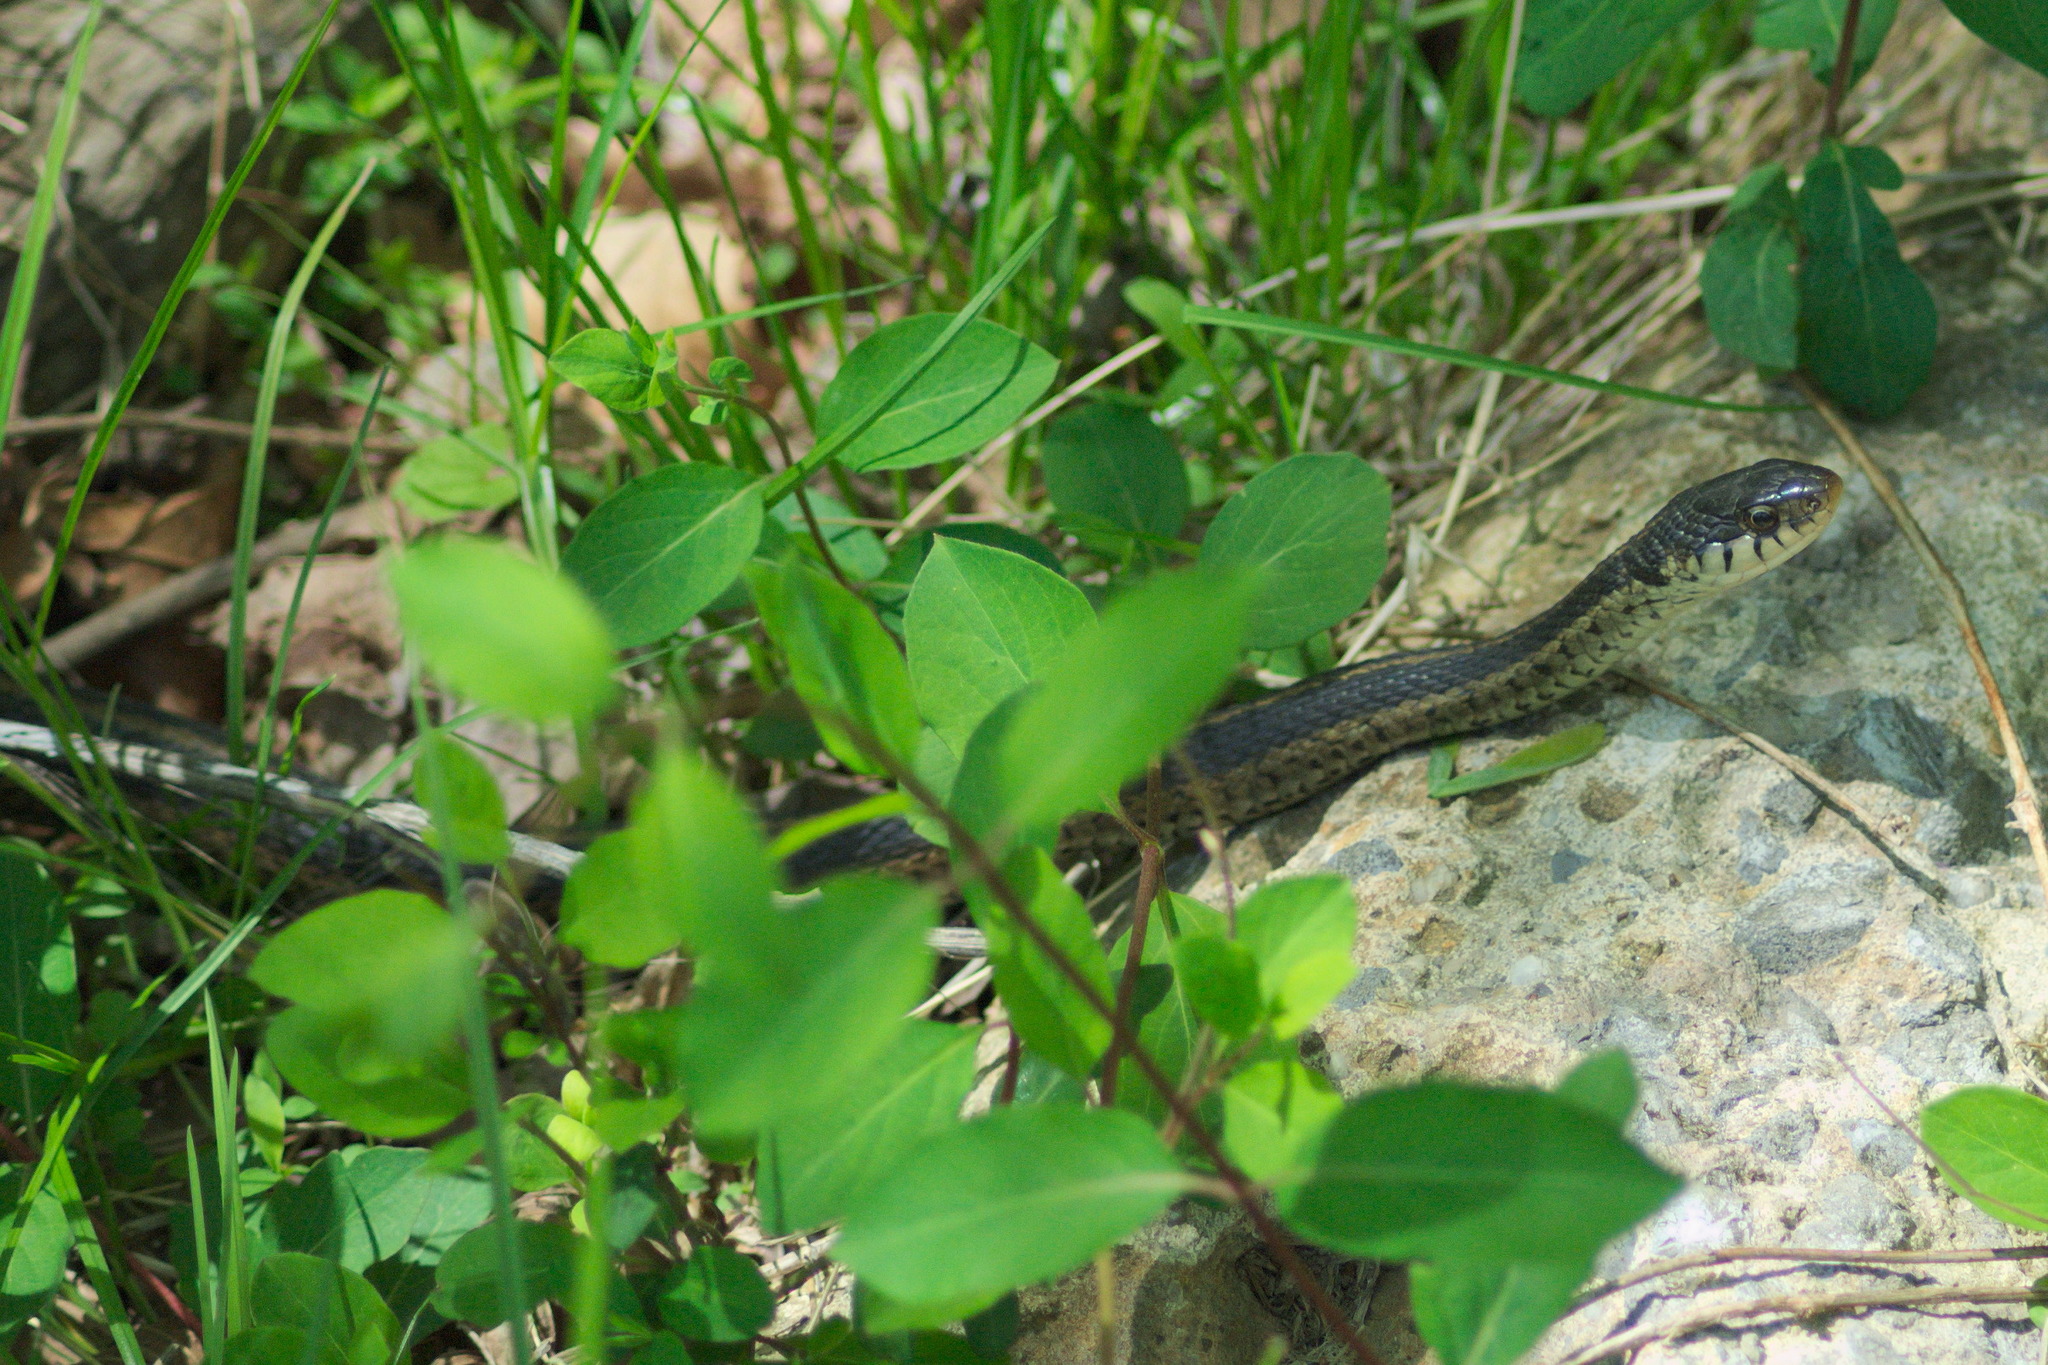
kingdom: Animalia
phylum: Chordata
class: Squamata
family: Colubridae
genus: Thamnophis
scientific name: Thamnophis sirtalis
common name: Common garter snake
